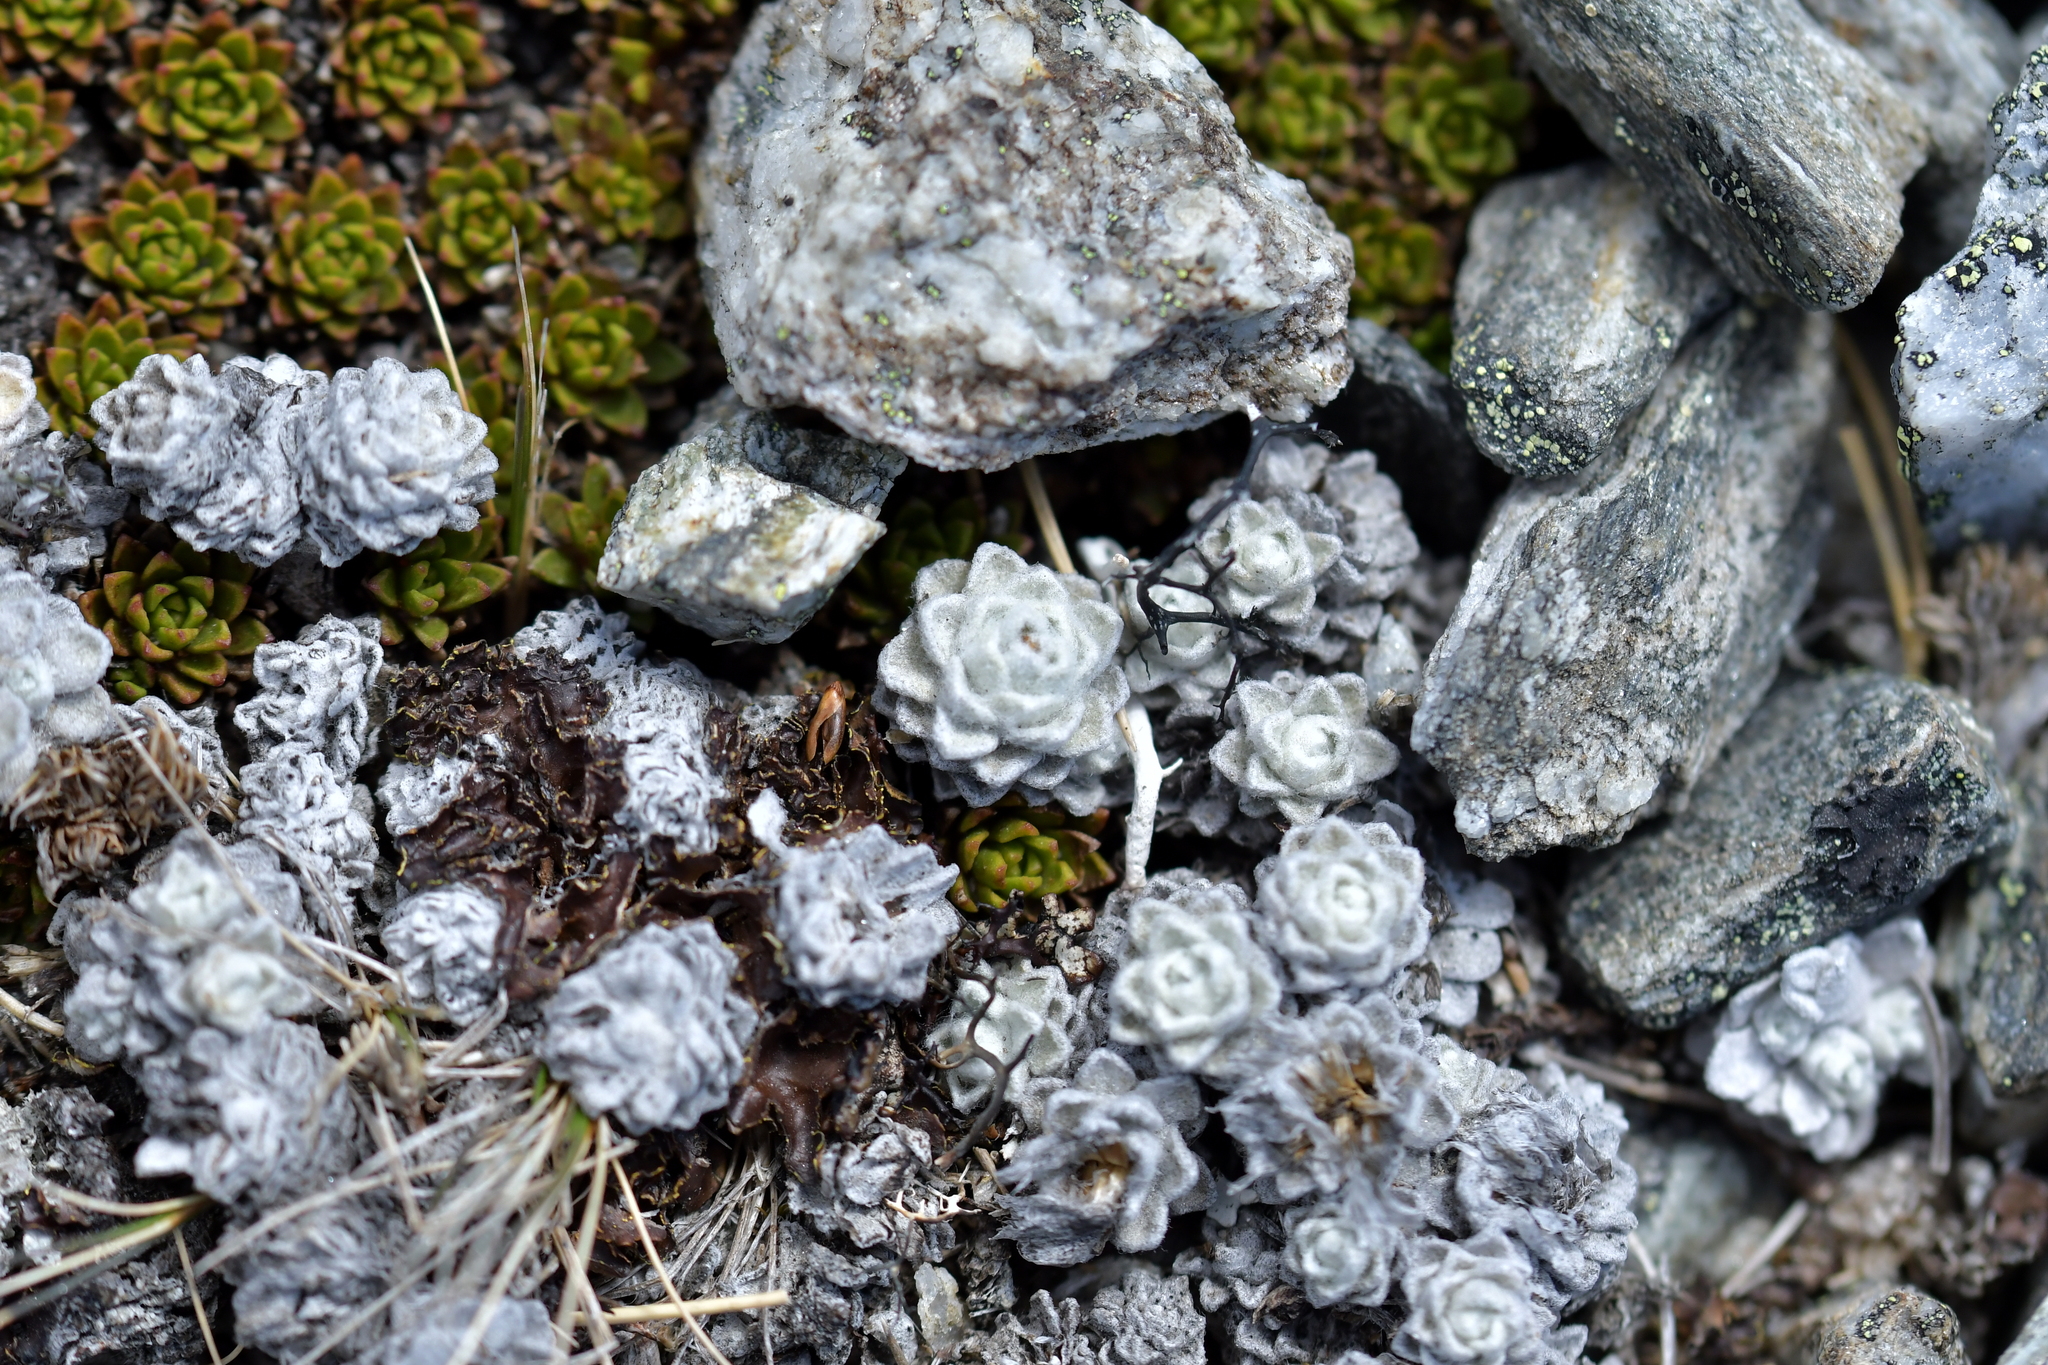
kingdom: Plantae
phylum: Tracheophyta
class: Magnoliopsida
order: Asterales
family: Asteraceae
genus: Raoulia
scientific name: Raoulia youngii
